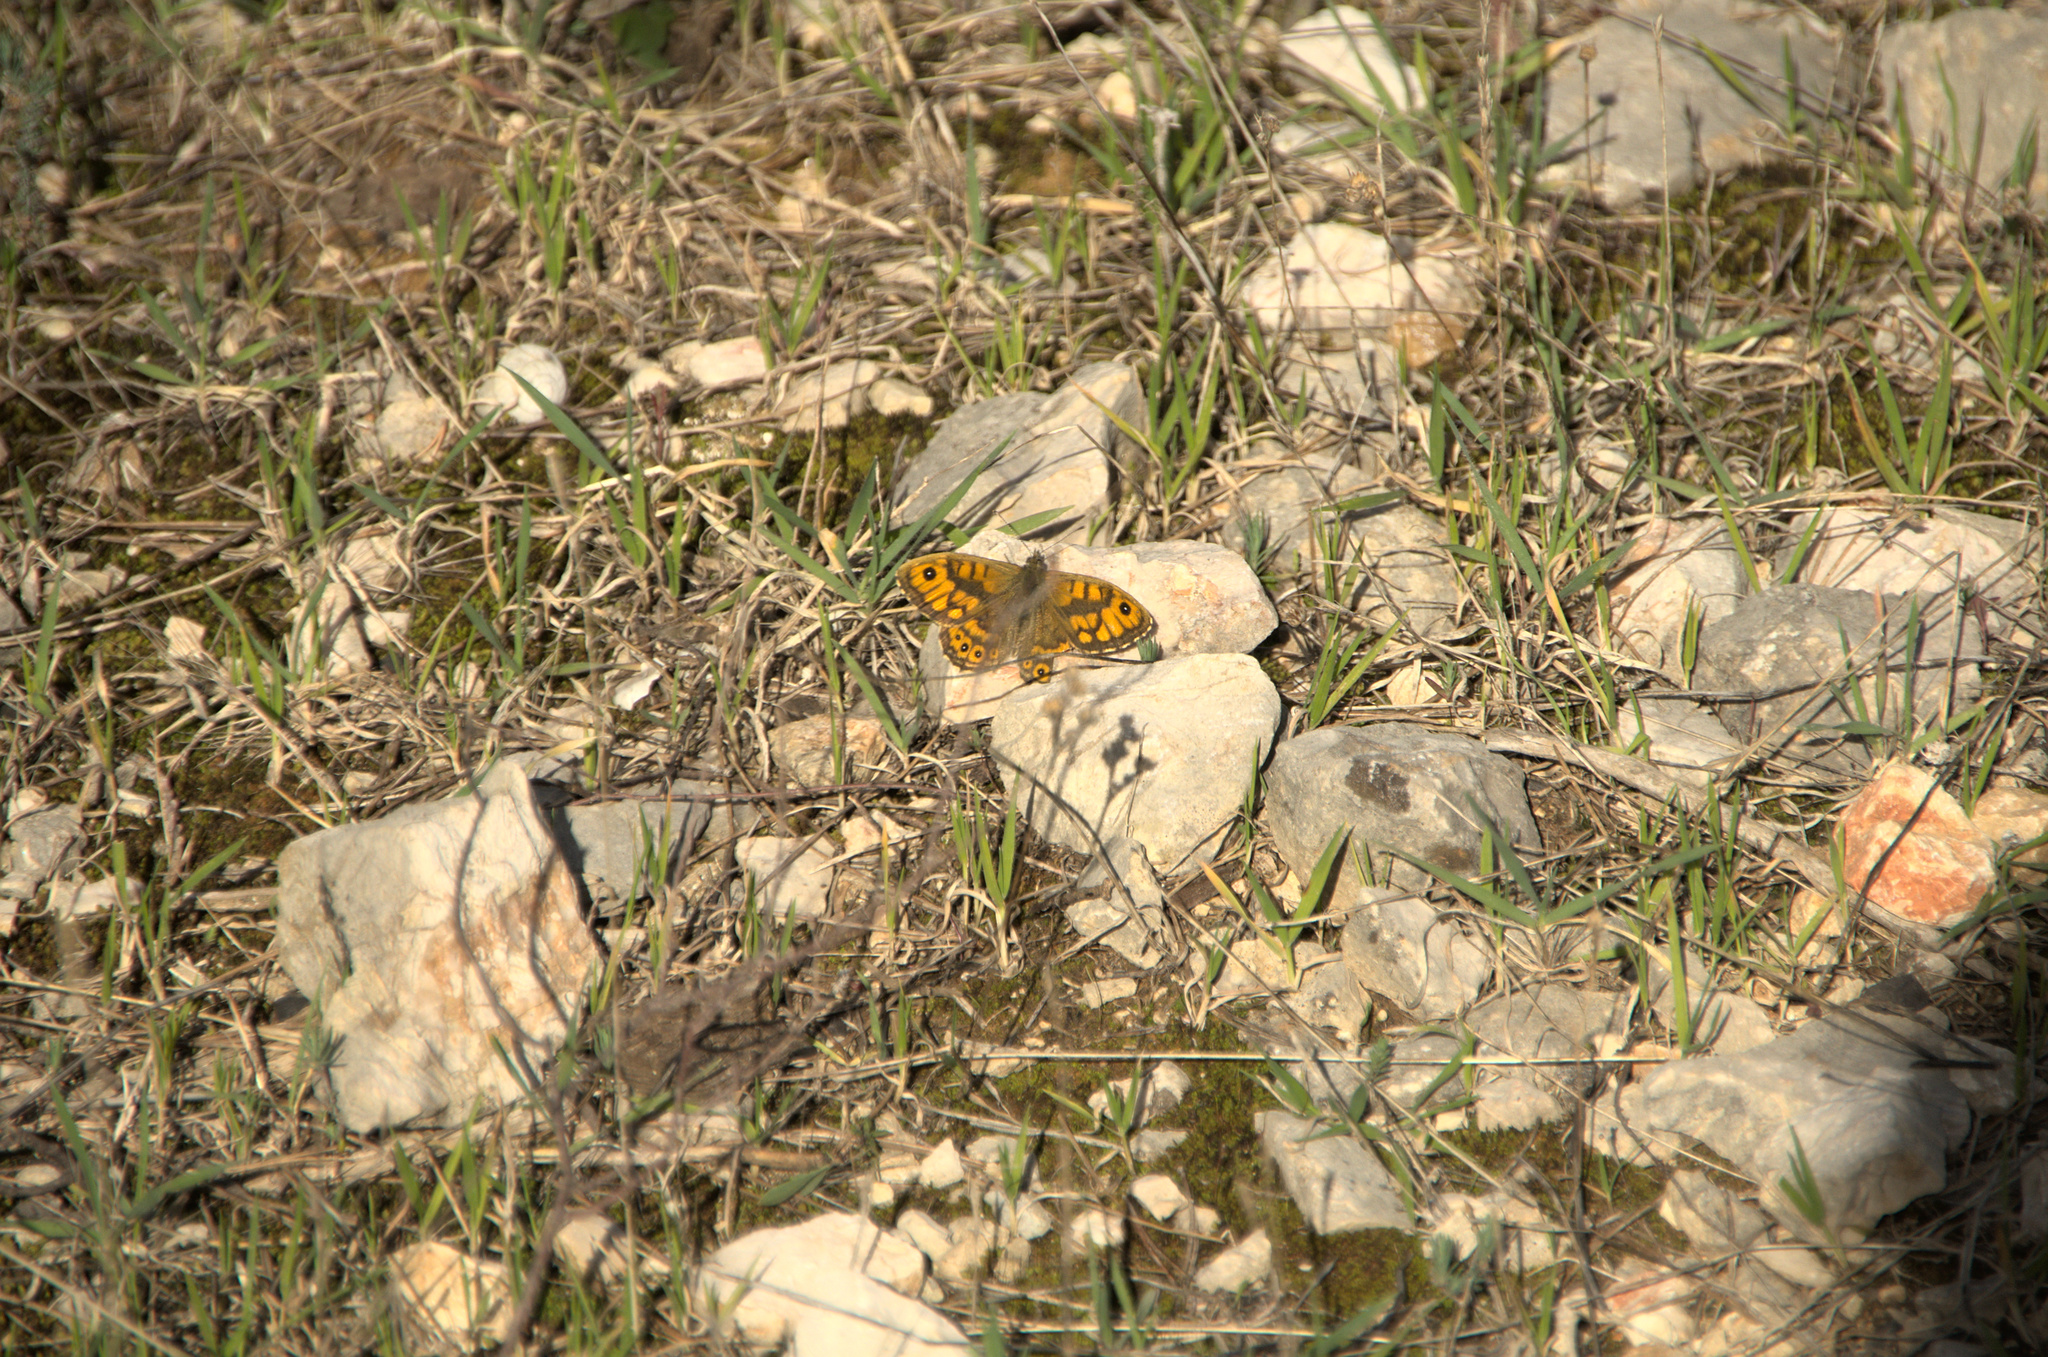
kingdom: Animalia
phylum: Arthropoda
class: Insecta
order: Lepidoptera
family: Nymphalidae
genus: Pararge
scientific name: Pararge Lasiommata megera
